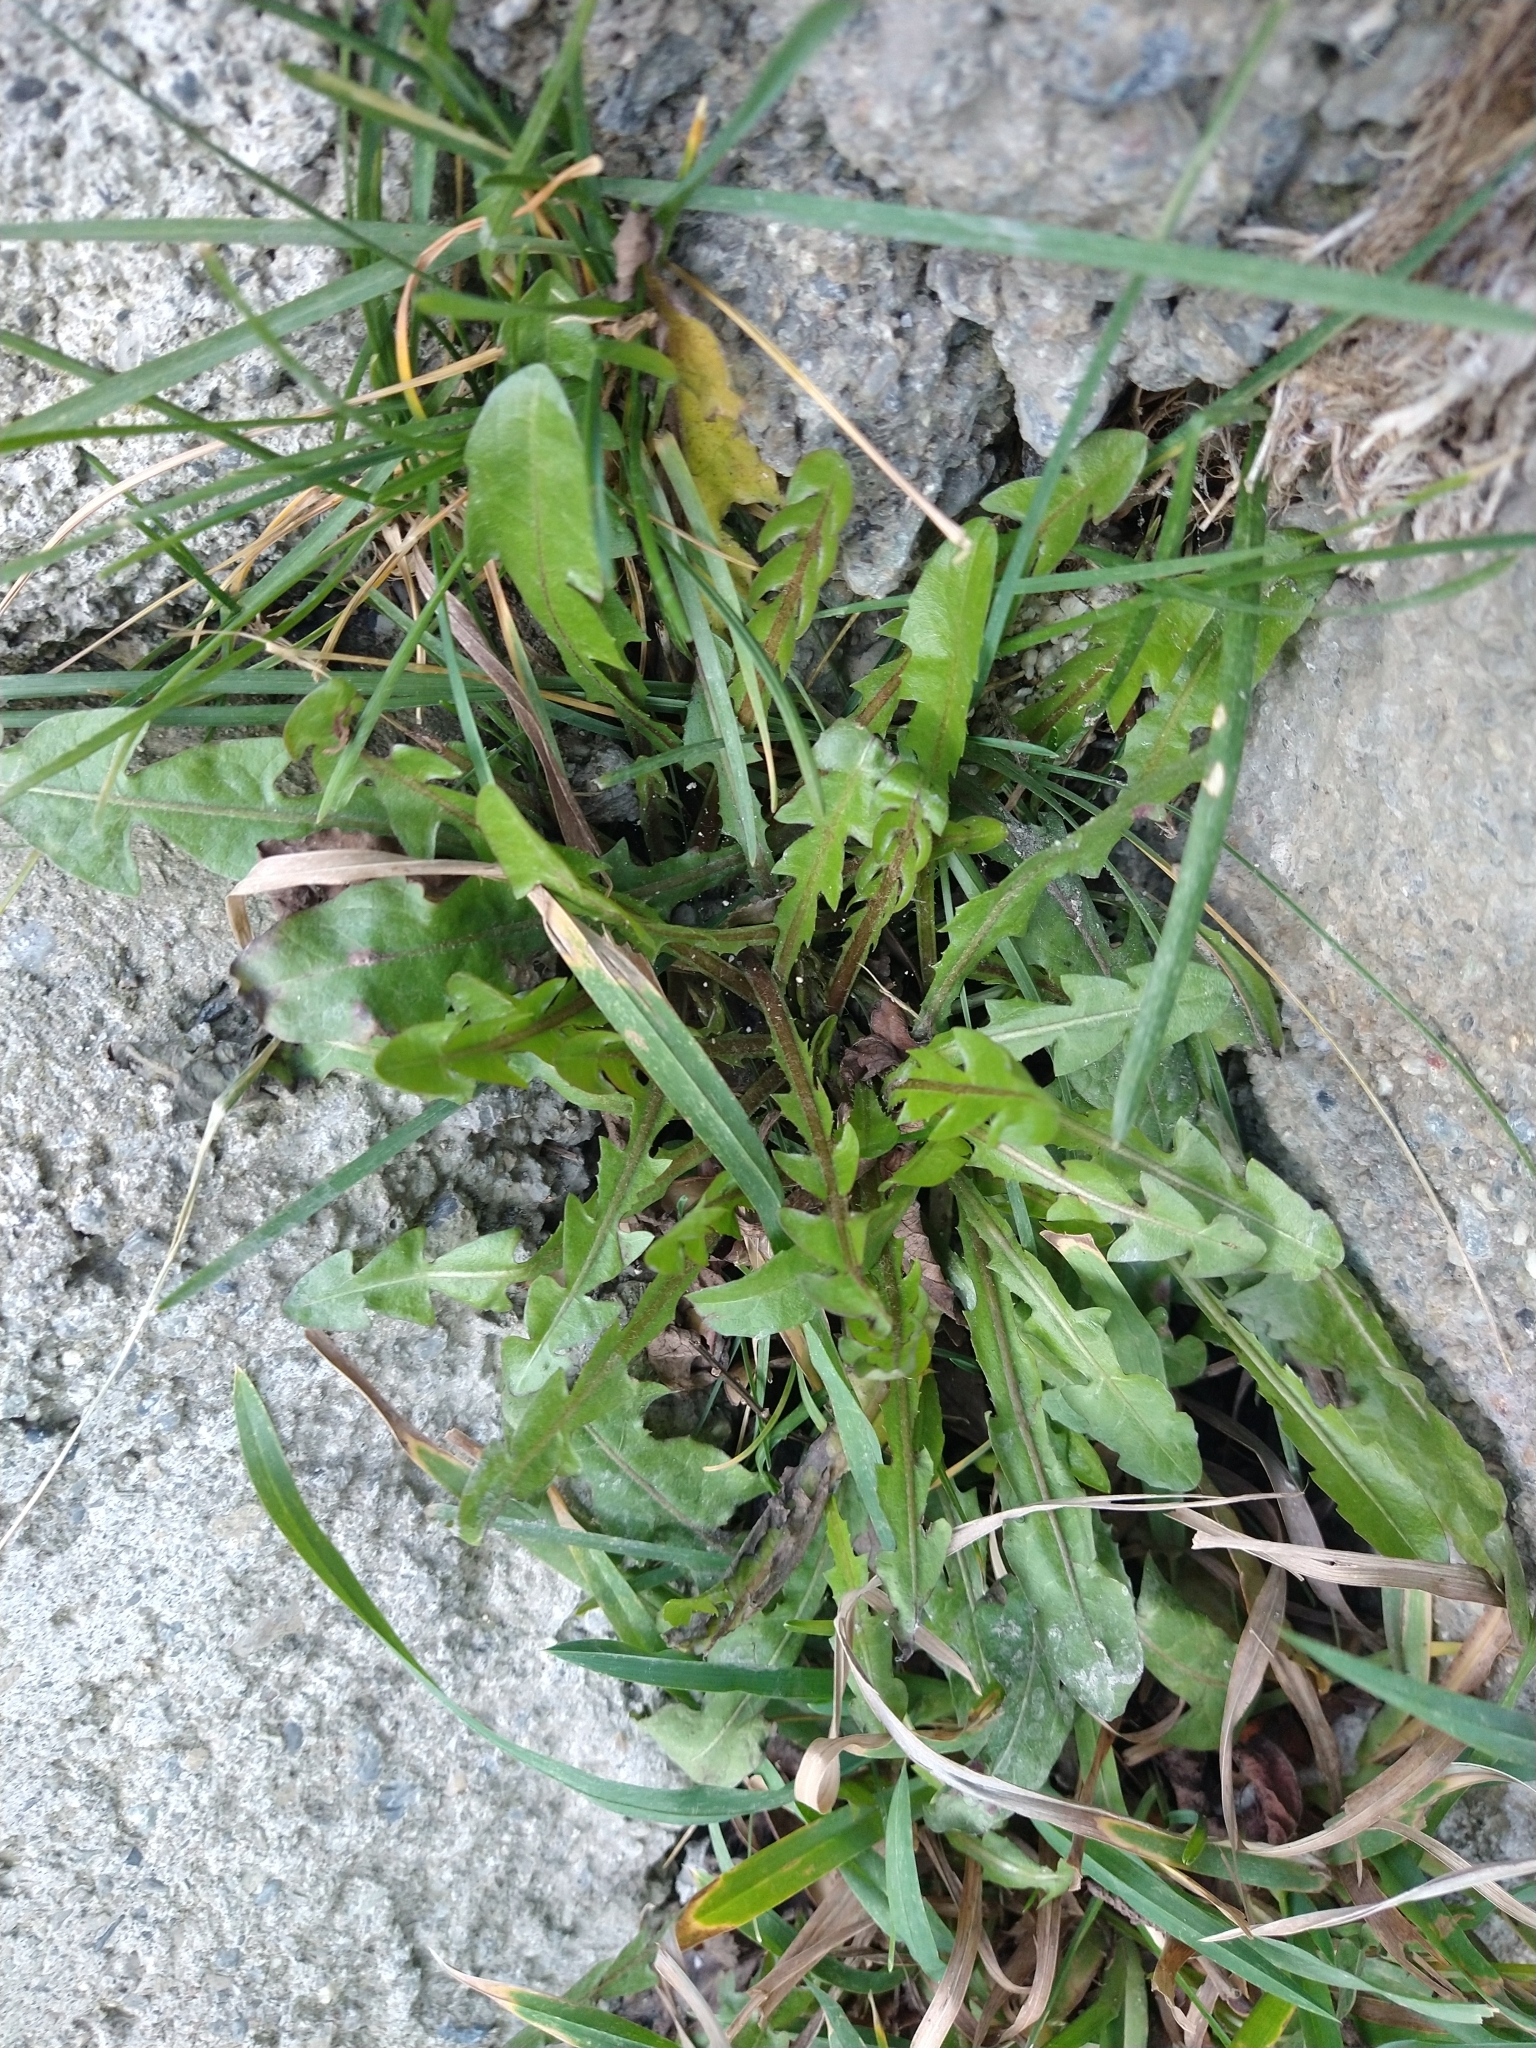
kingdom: Plantae
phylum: Tracheophyta
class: Magnoliopsida
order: Asterales
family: Asteraceae
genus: Taraxacum
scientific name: Taraxacum officinale
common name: Common dandelion
